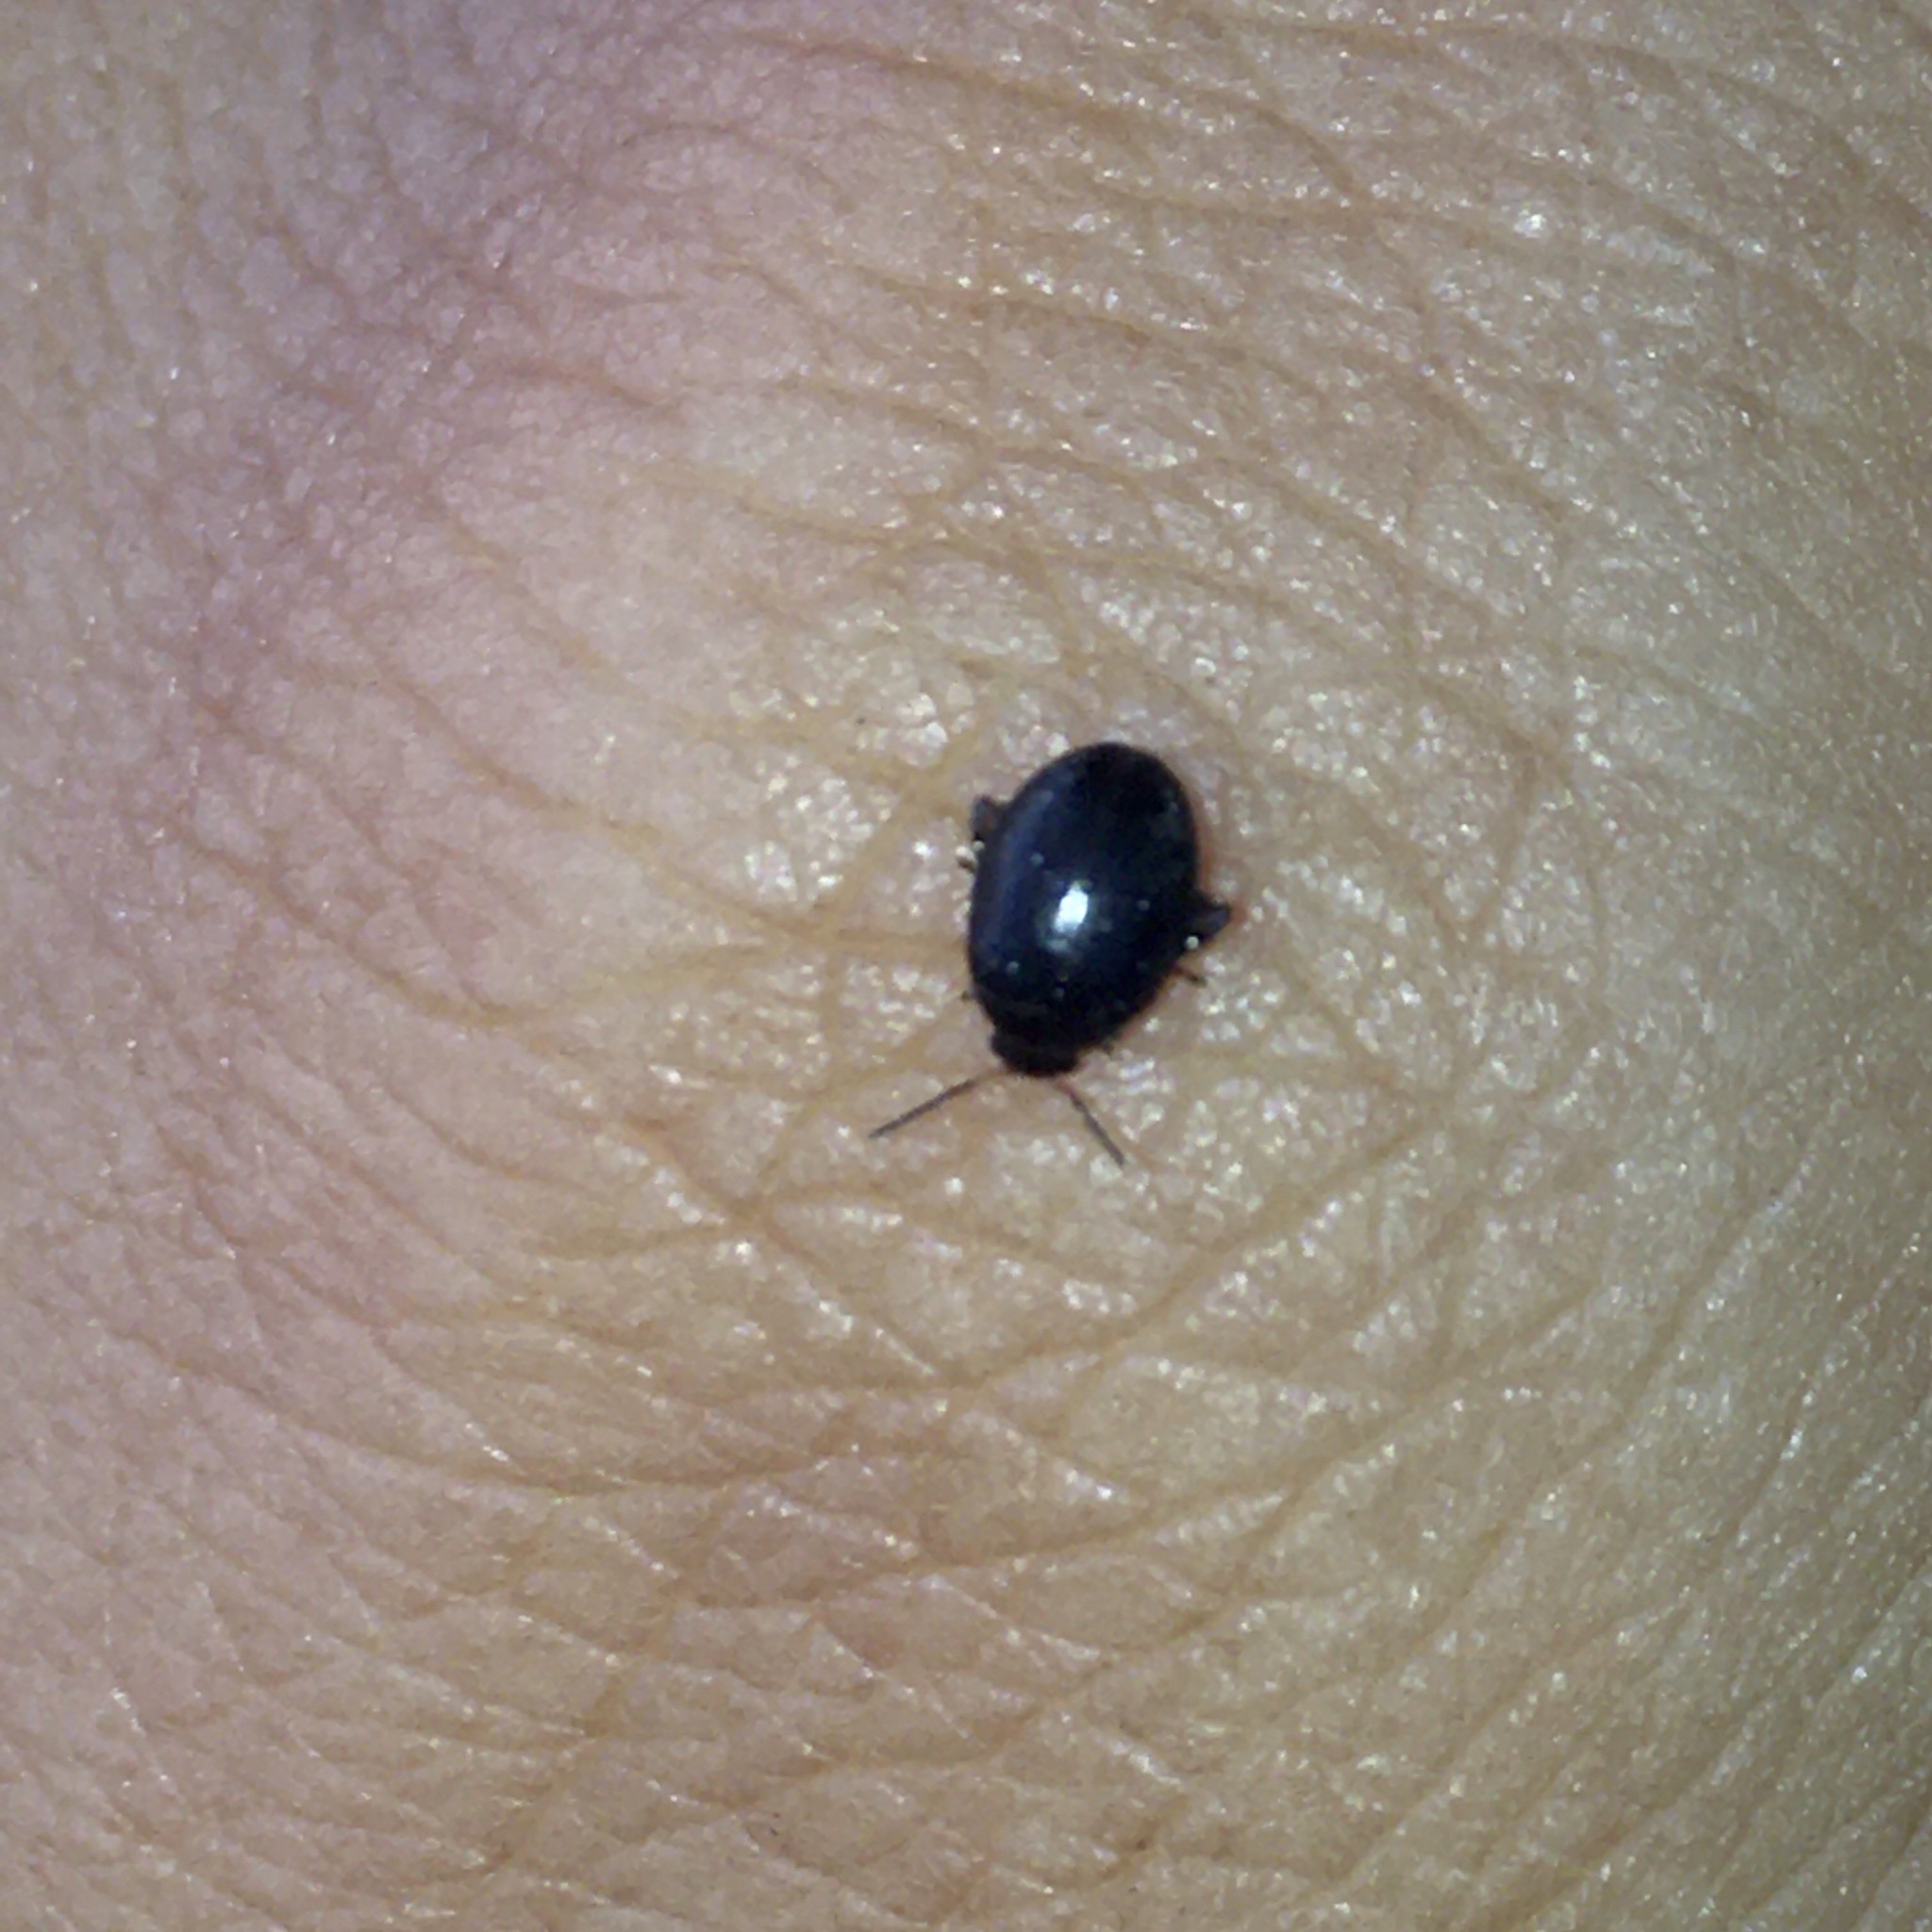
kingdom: Animalia
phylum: Arthropoda
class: Insecta
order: Coleoptera
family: Scirtidae
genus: Scirtes
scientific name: Scirtes hemisphaericus
